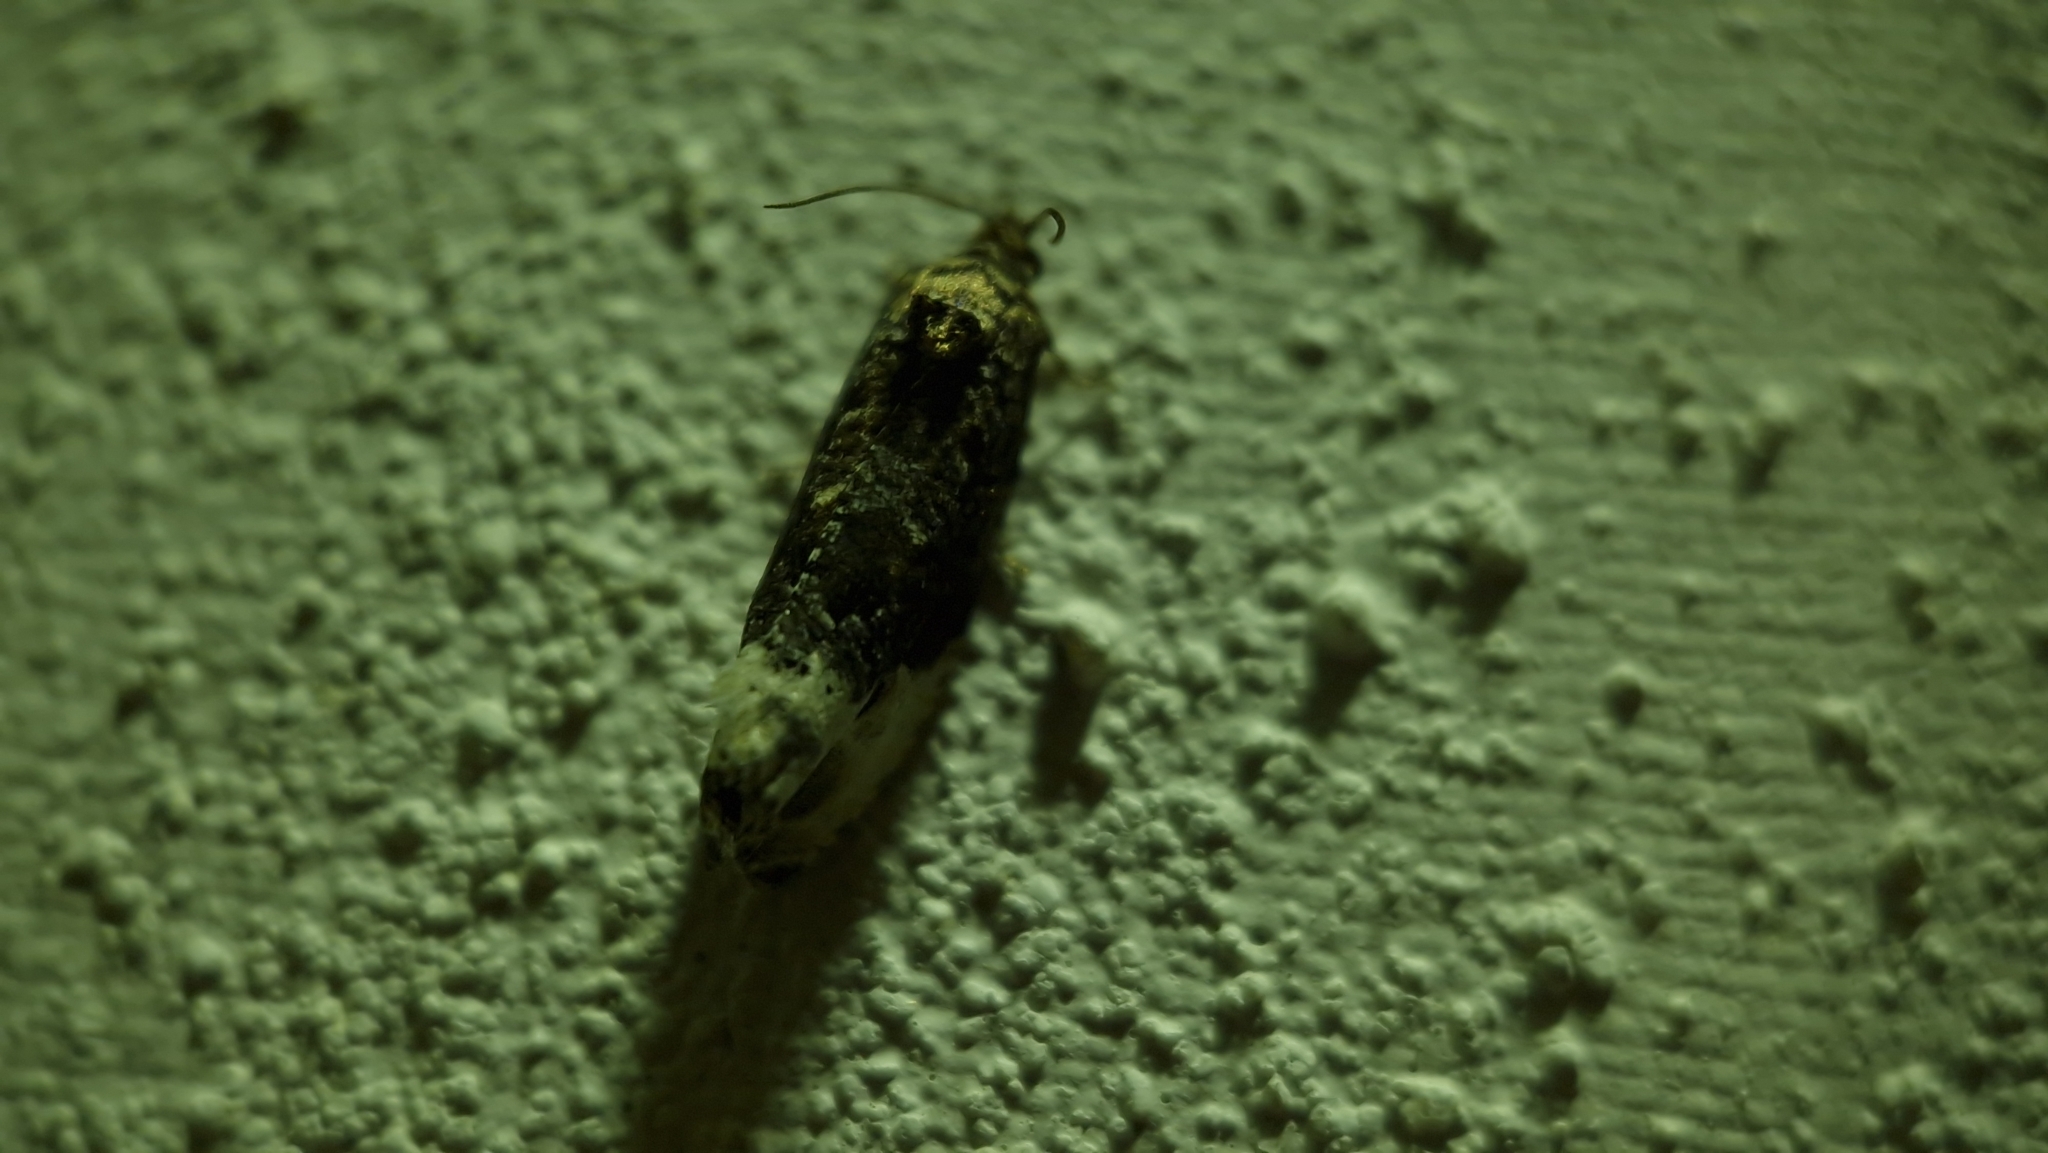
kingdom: Animalia
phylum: Arthropoda
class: Insecta
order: Lepidoptera
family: Tortricidae
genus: Hedya
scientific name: Hedya nubiferana
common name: Marbled orchard tortrix
